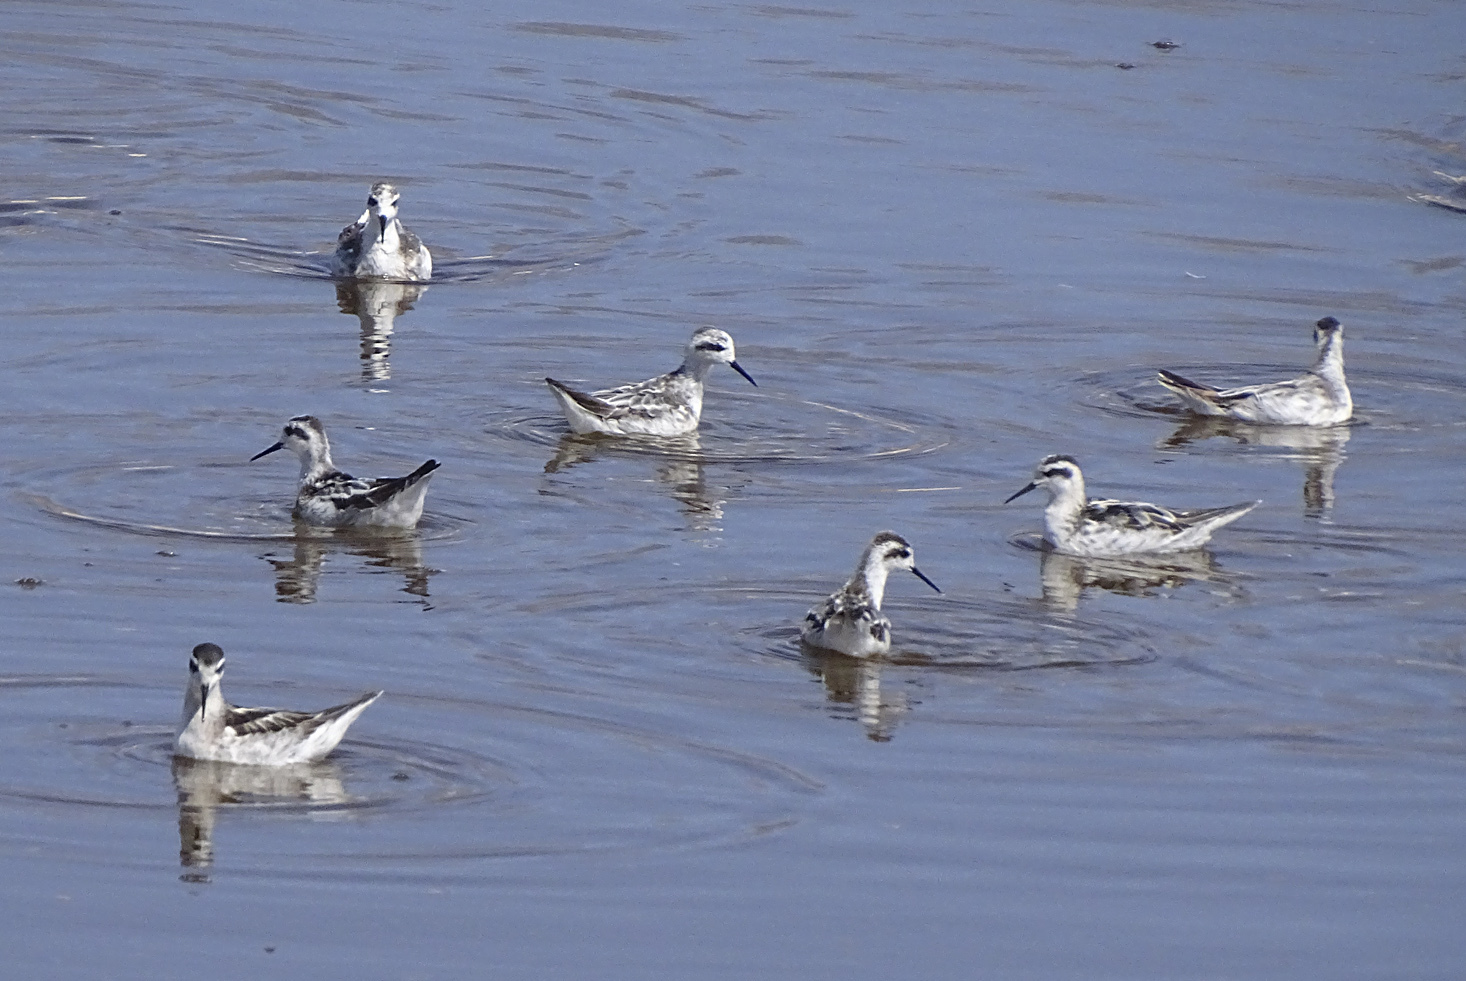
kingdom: Animalia
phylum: Chordata
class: Aves
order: Charadriiformes
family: Scolopacidae
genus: Phalaropus
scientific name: Phalaropus lobatus
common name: Red-necked phalarope
